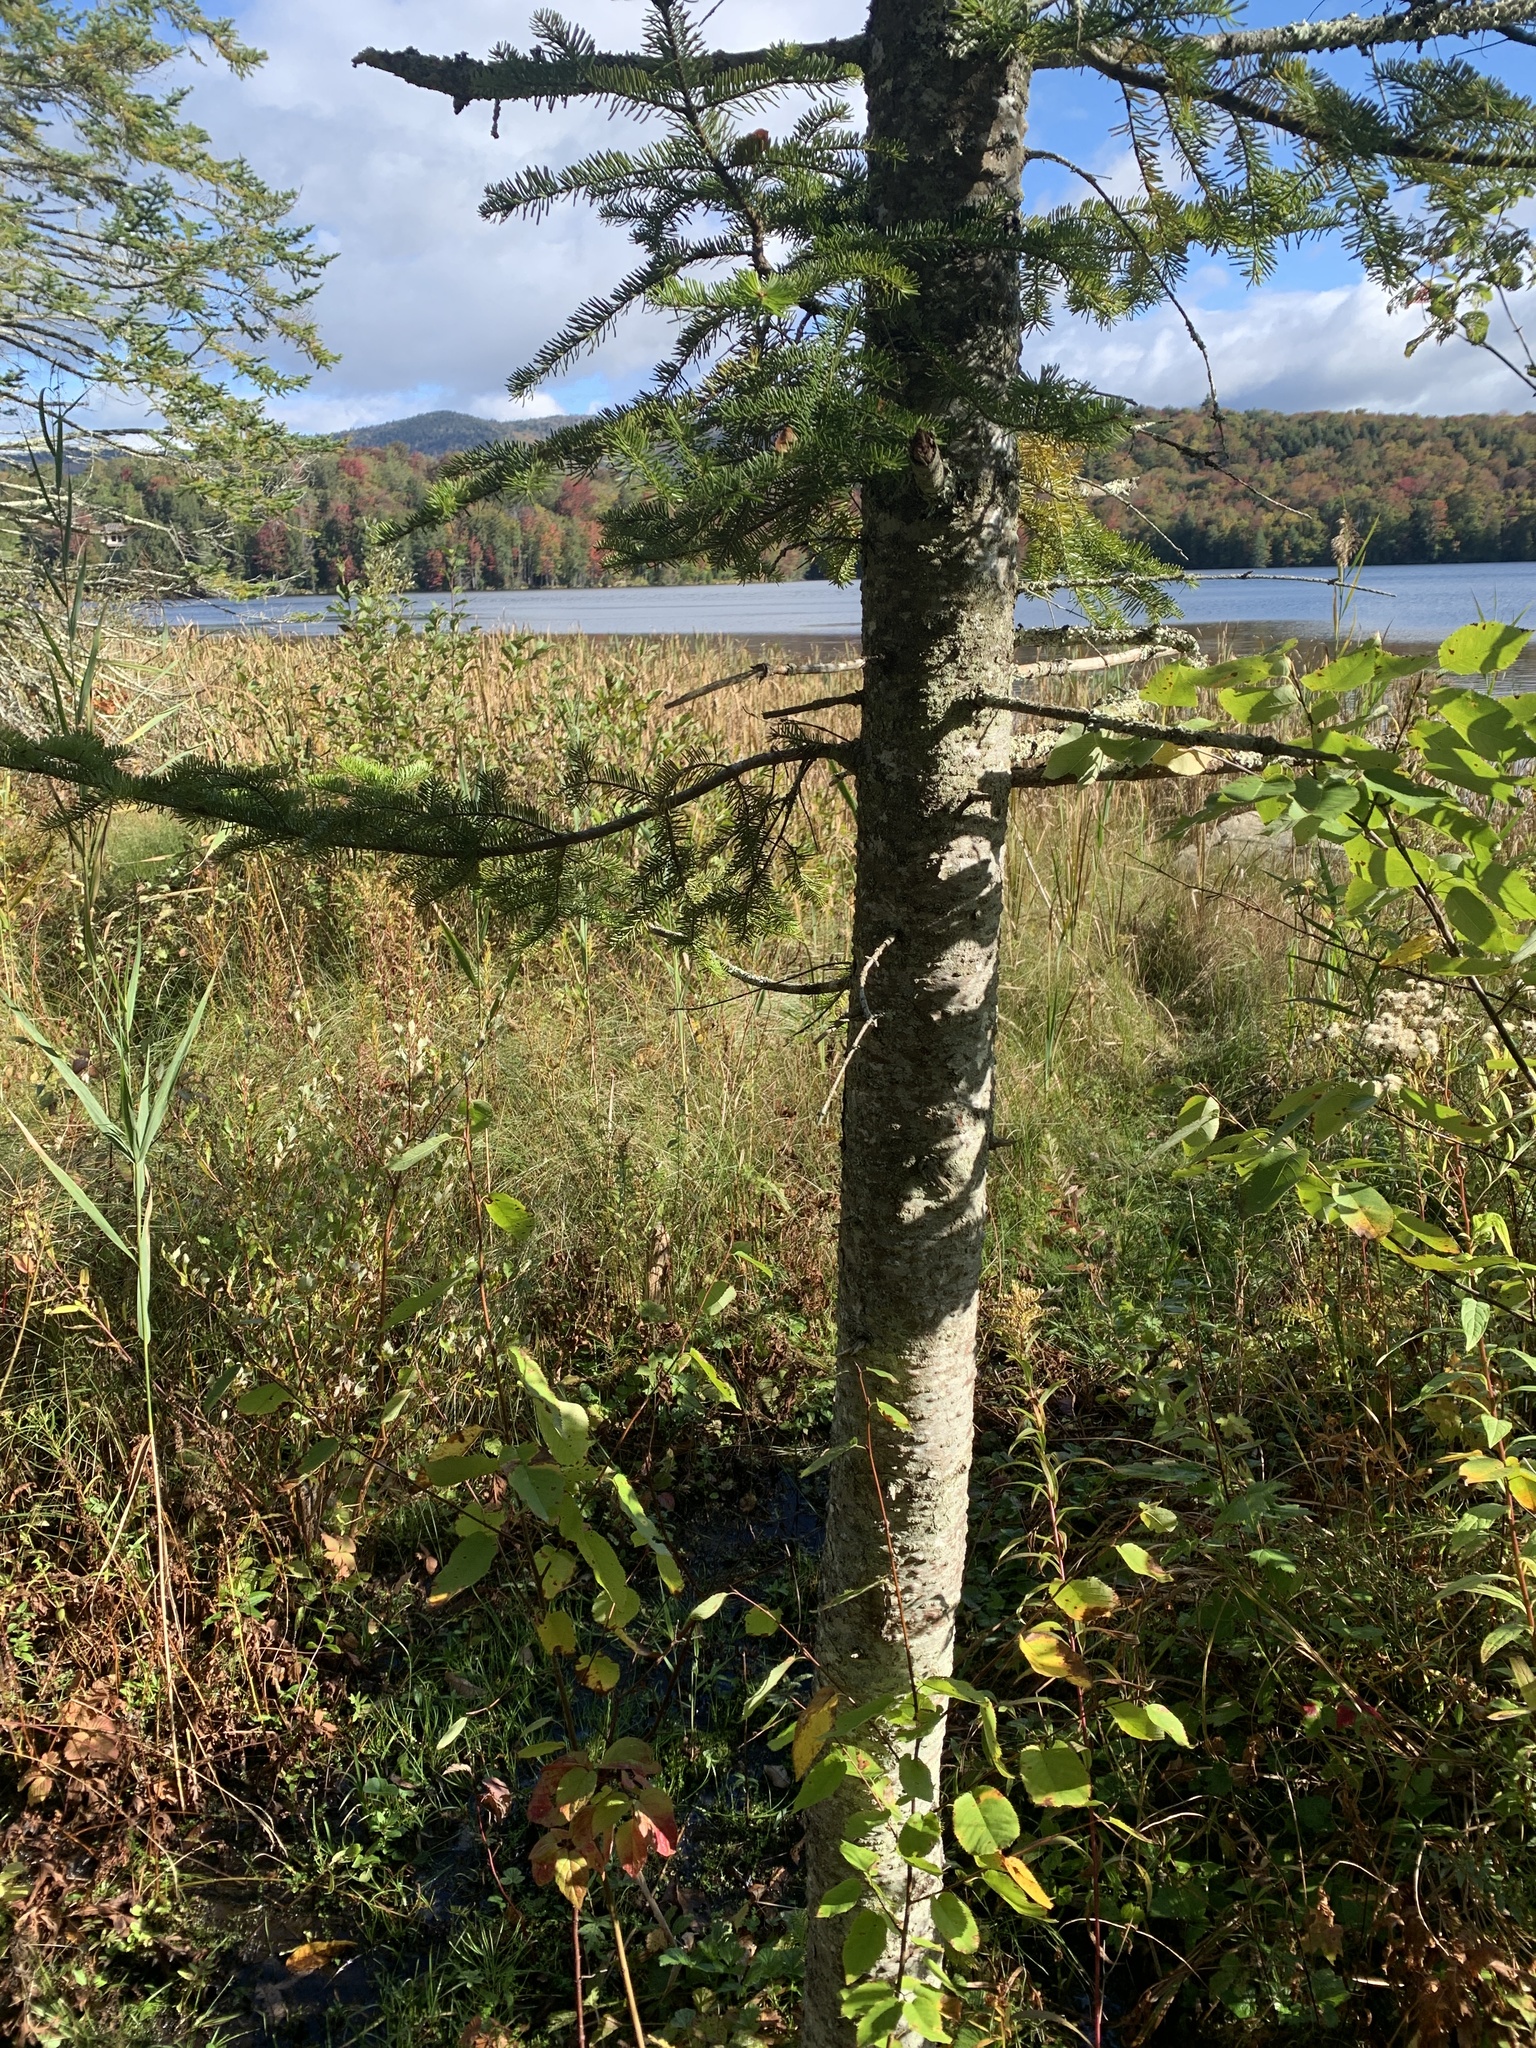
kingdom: Plantae
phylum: Tracheophyta
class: Pinopsida
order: Pinales
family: Pinaceae
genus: Abies
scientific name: Abies balsamea
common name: Balsam fir
